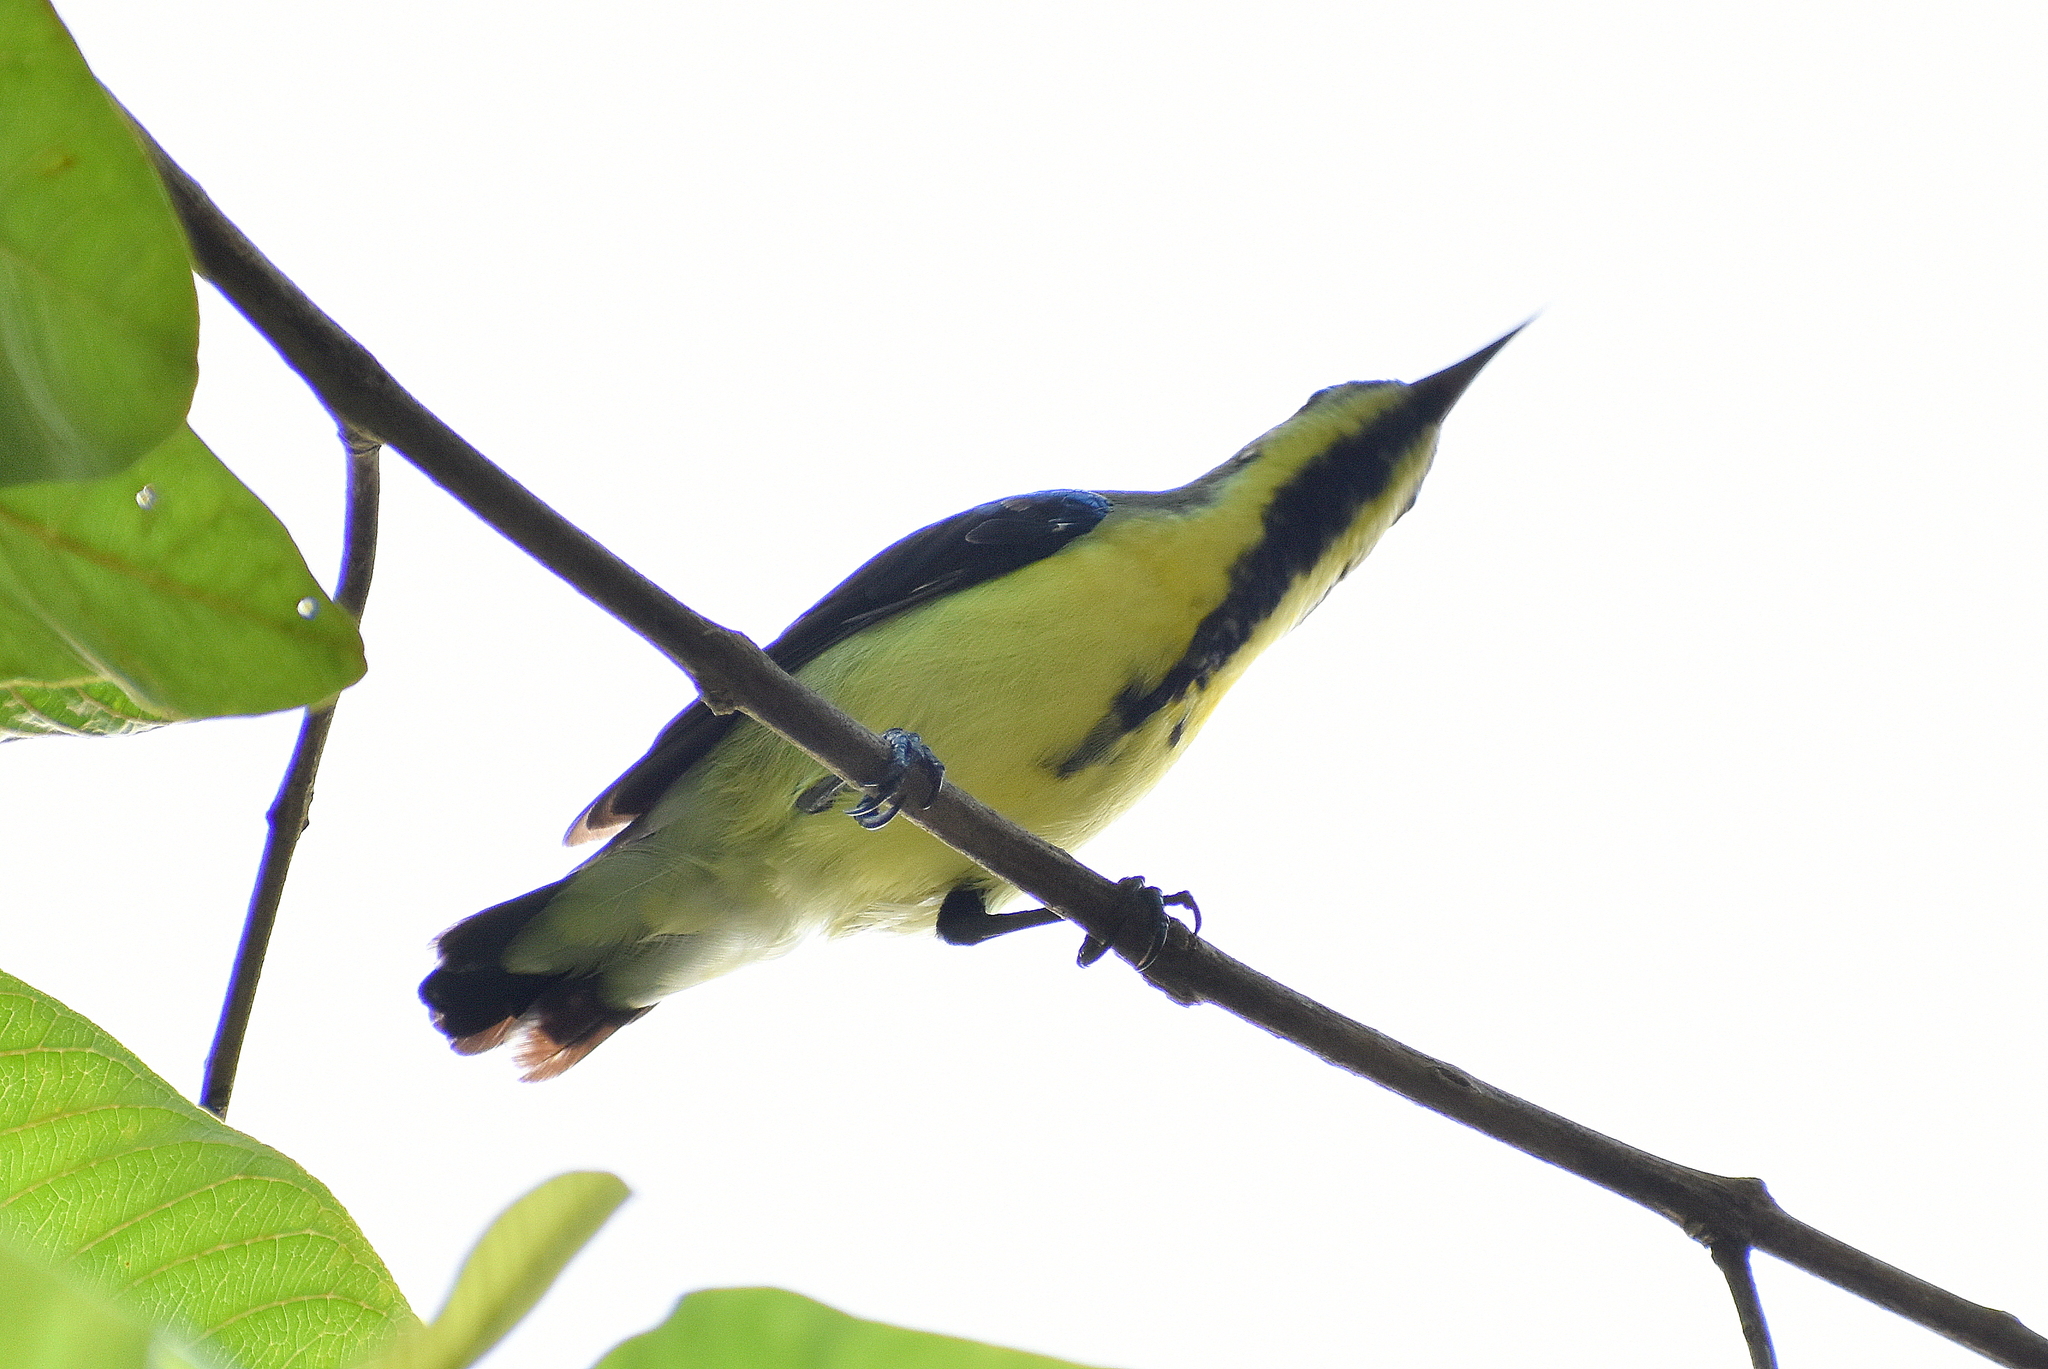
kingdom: Animalia
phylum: Chordata
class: Aves
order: Passeriformes
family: Nectariniidae
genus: Cinnyris
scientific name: Cinnyris asiaticus
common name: Purple sunbird
